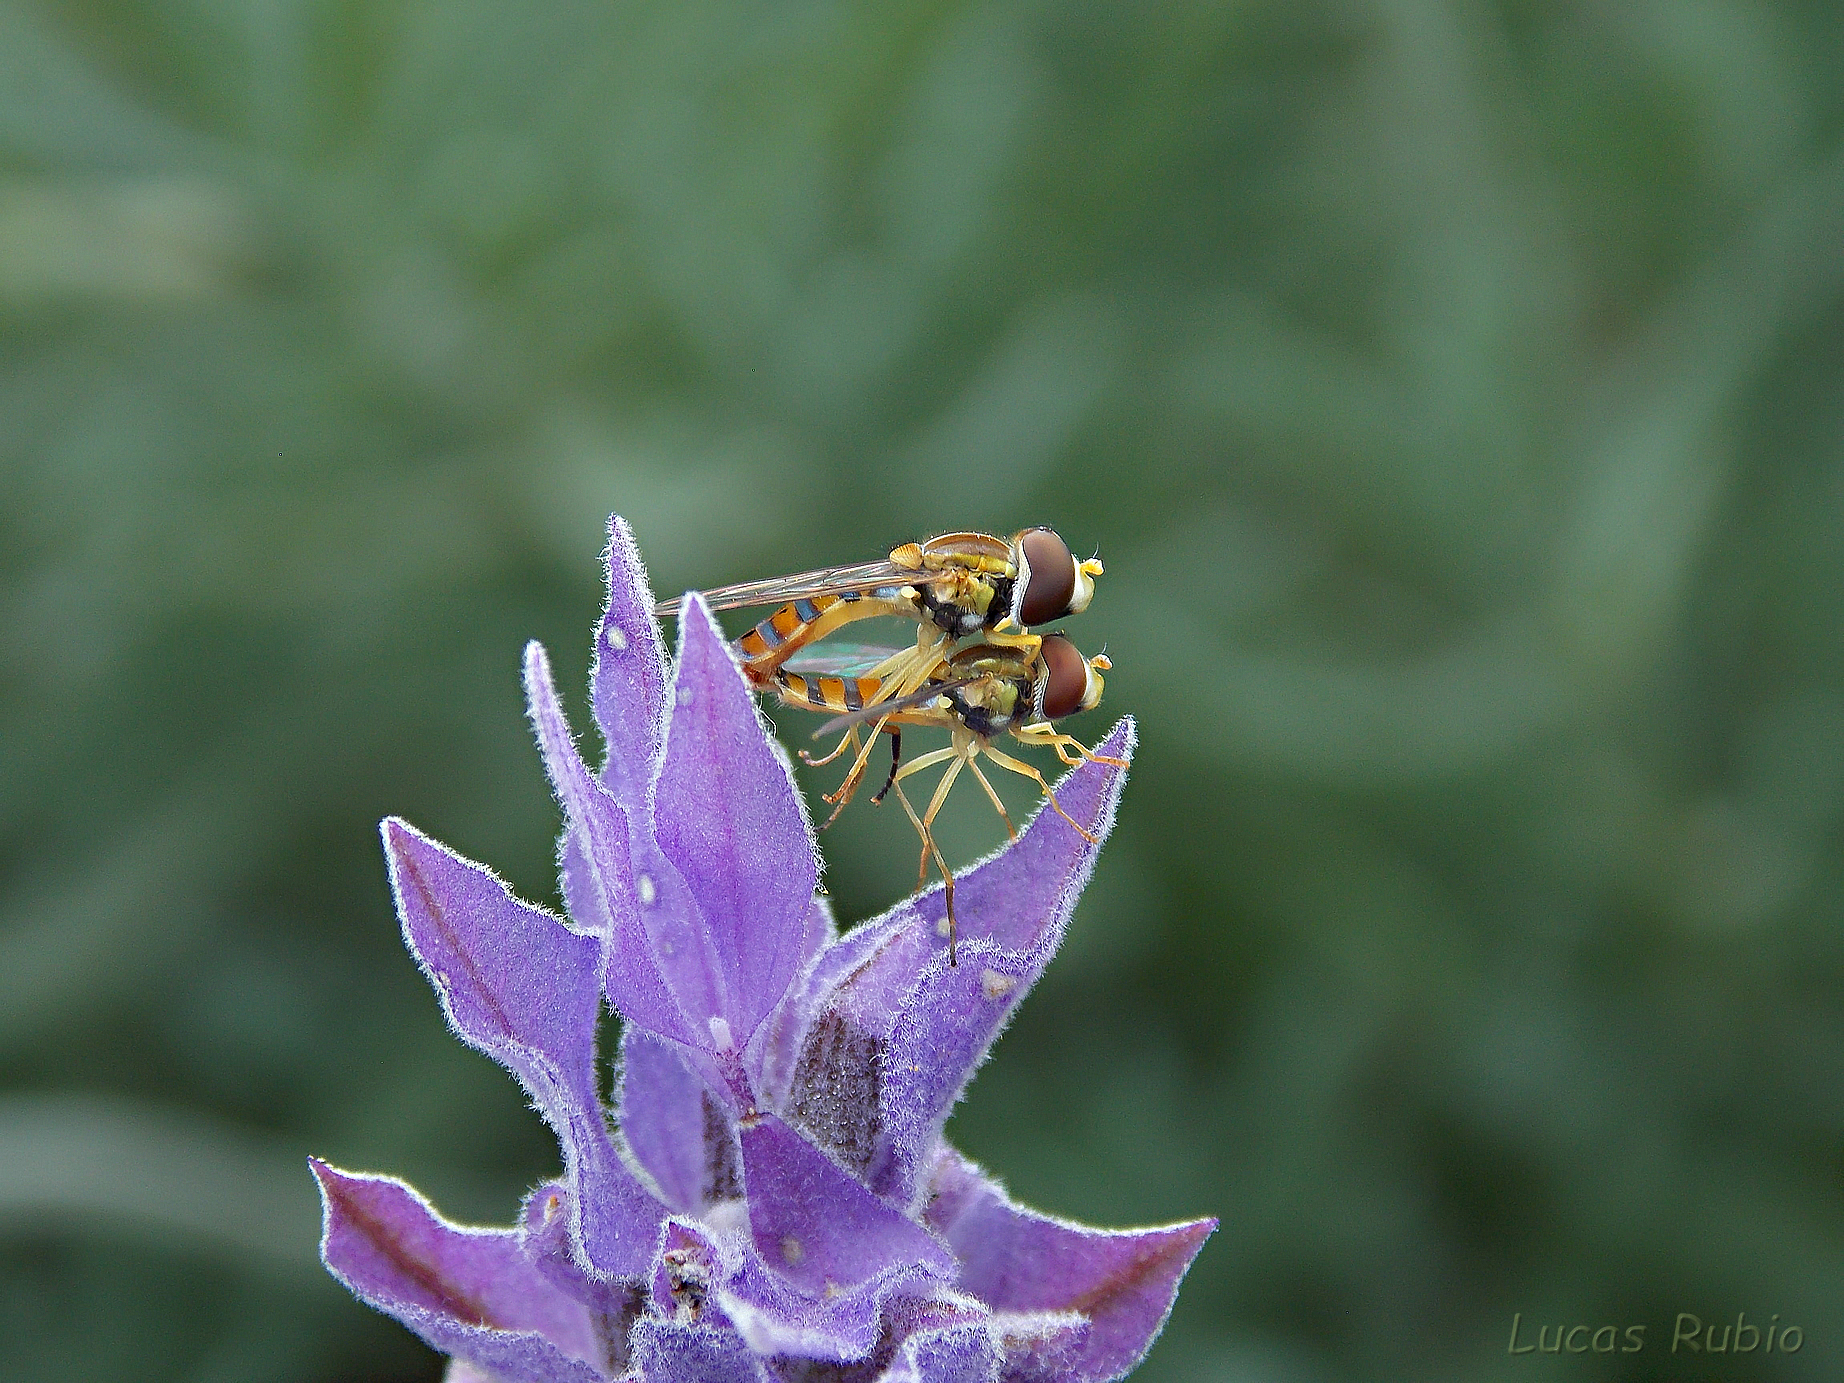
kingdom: Animalia
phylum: Arthropoda
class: Insecta
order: Diptera
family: Syrphidae
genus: Toxomerus
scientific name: Toxomerus
